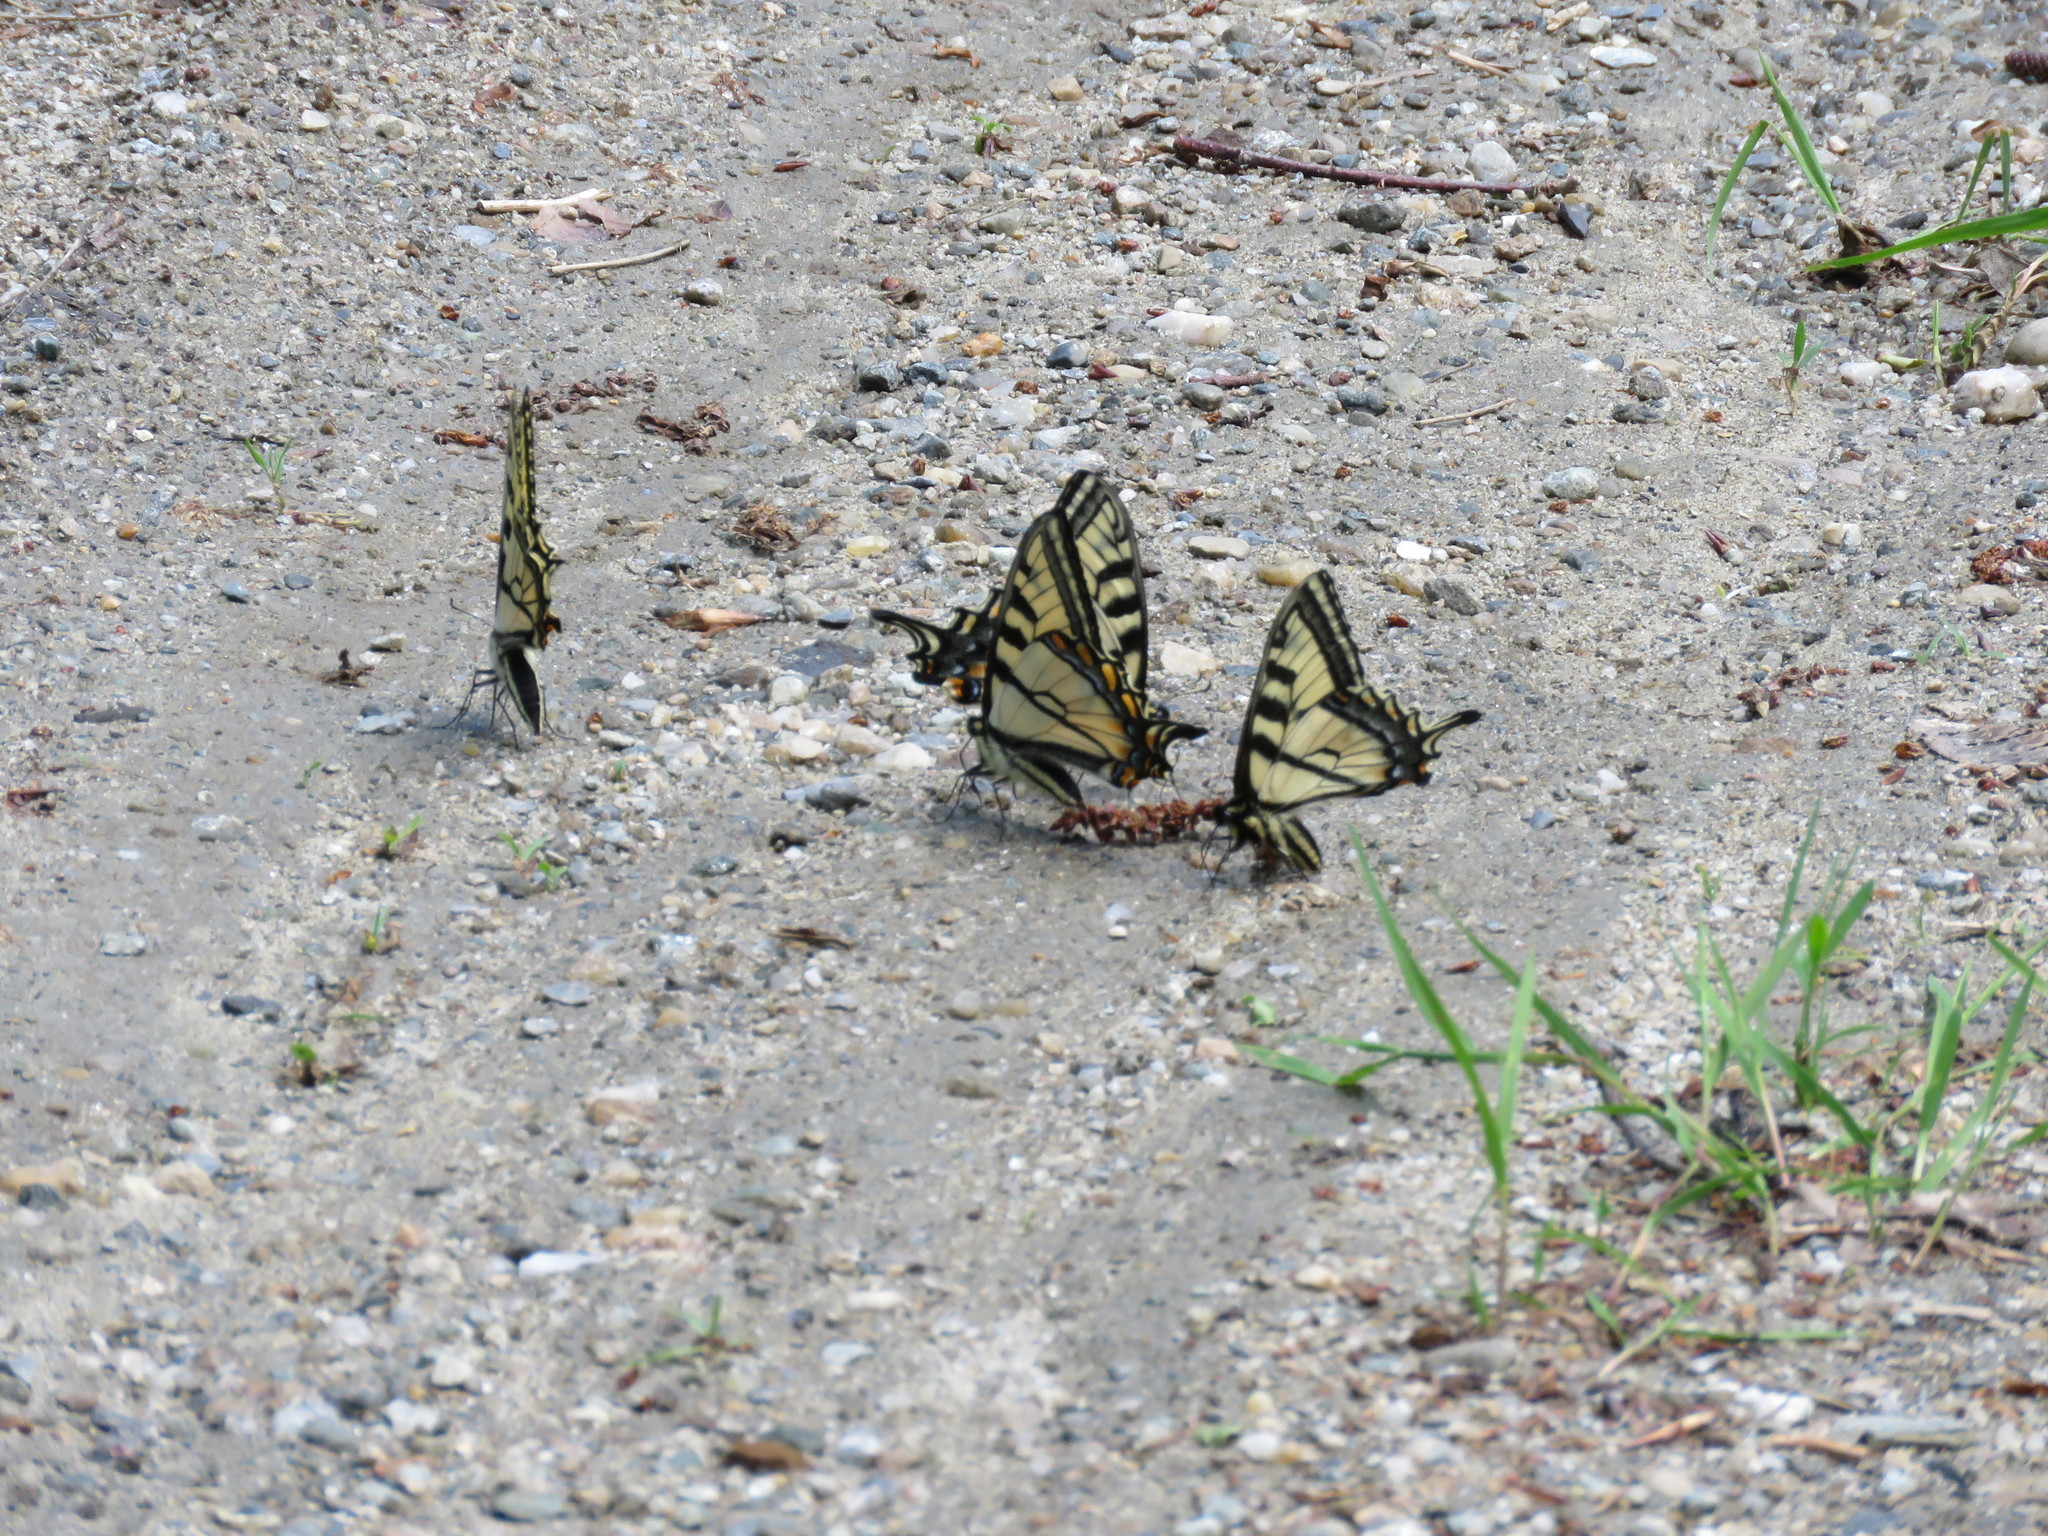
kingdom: Animalia
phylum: Arthropoda
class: Insecta
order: Lepidoptera
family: Papilionidae
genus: Papilio
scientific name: Papilio canadensis
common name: Canadian tiger swallowtail
